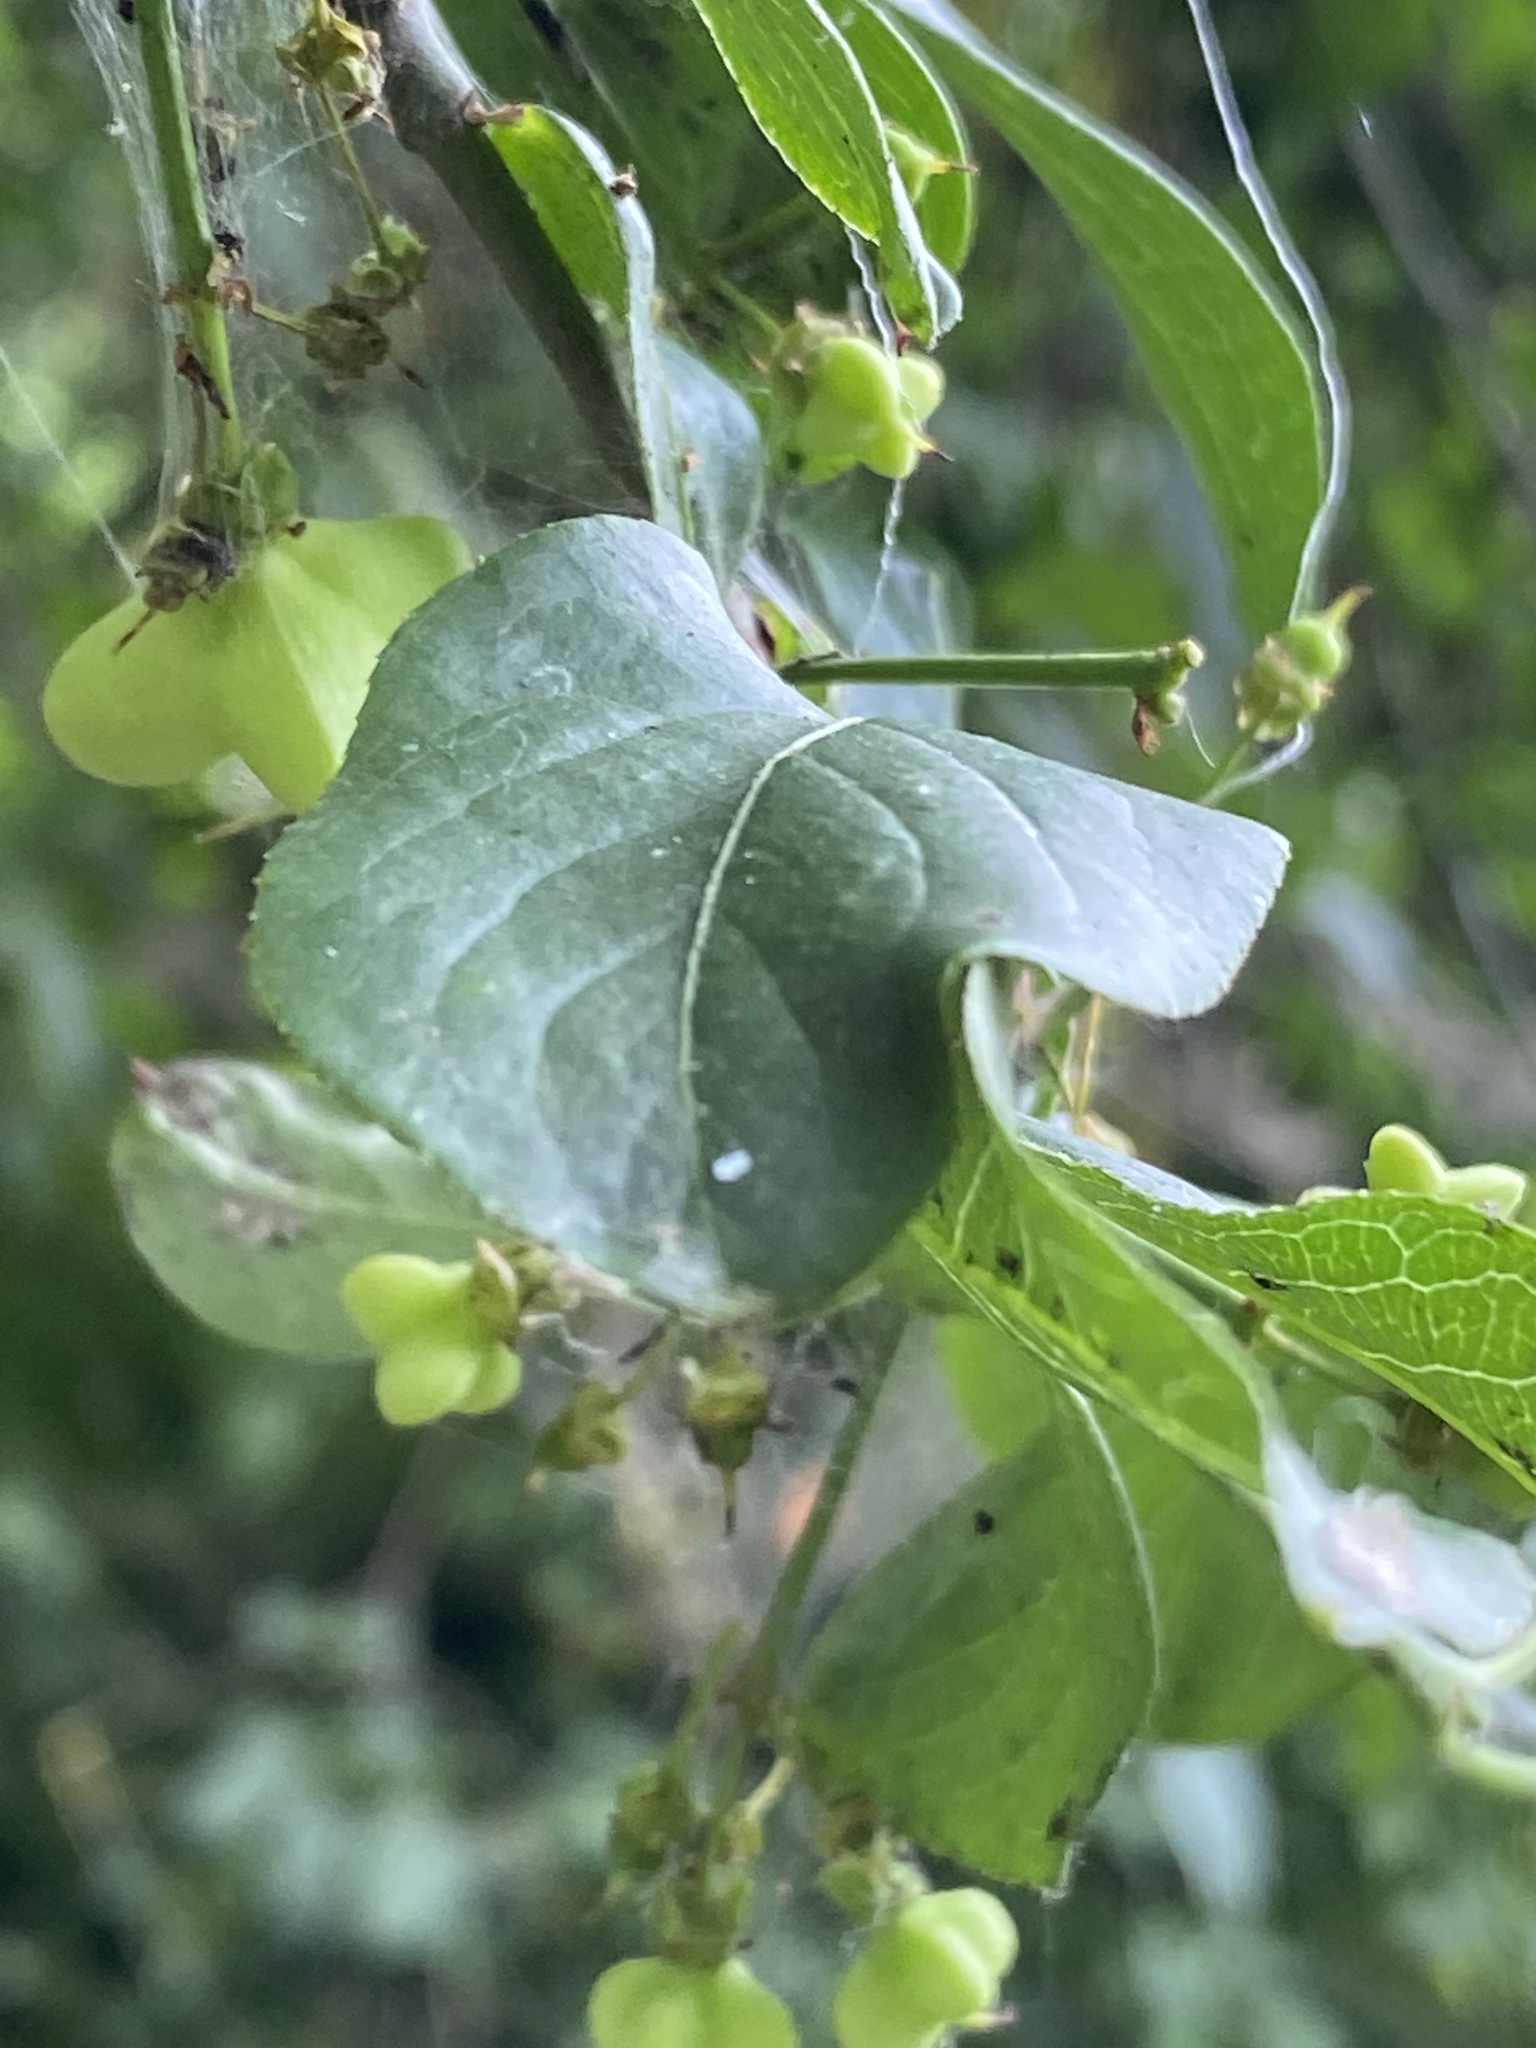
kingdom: Plantae
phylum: Tracheophyta
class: Magnoliopsida
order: Celastrales
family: Celastraceae
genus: Euonymus
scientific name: Euonymus europaeus
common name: Spindle
